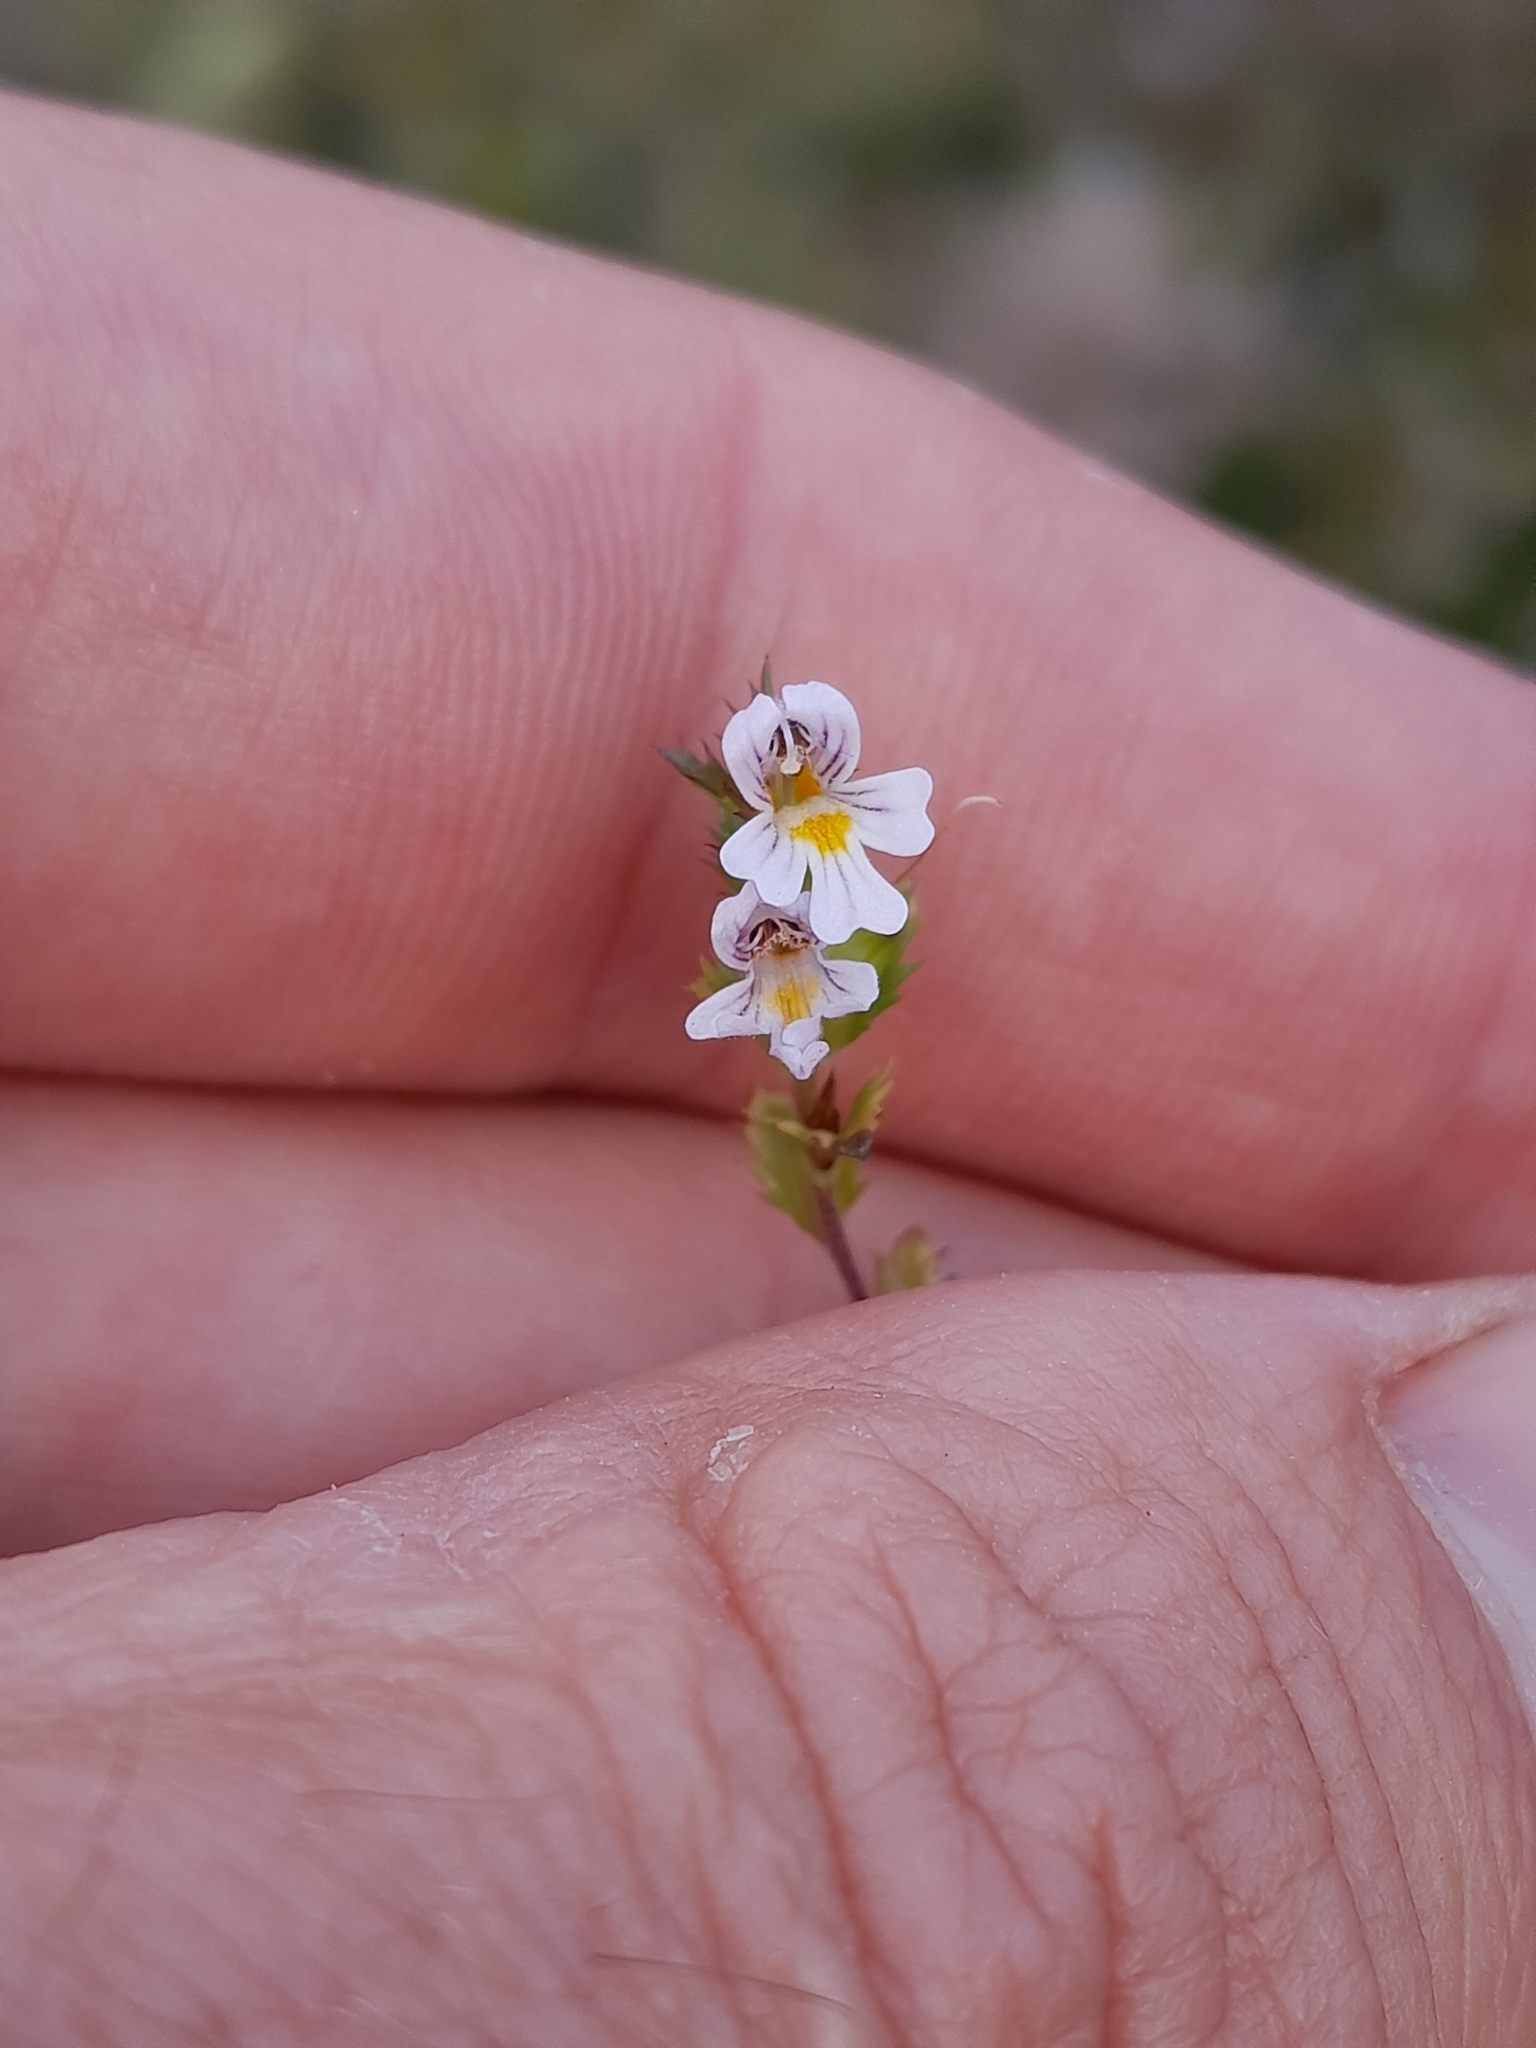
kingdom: Plantae
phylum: Tracheophyta
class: Magnoliopsida
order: Lamiales
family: Orobanchaceae
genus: Euphrasia
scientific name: Euphrasia nemorosa
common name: Common eyebright
